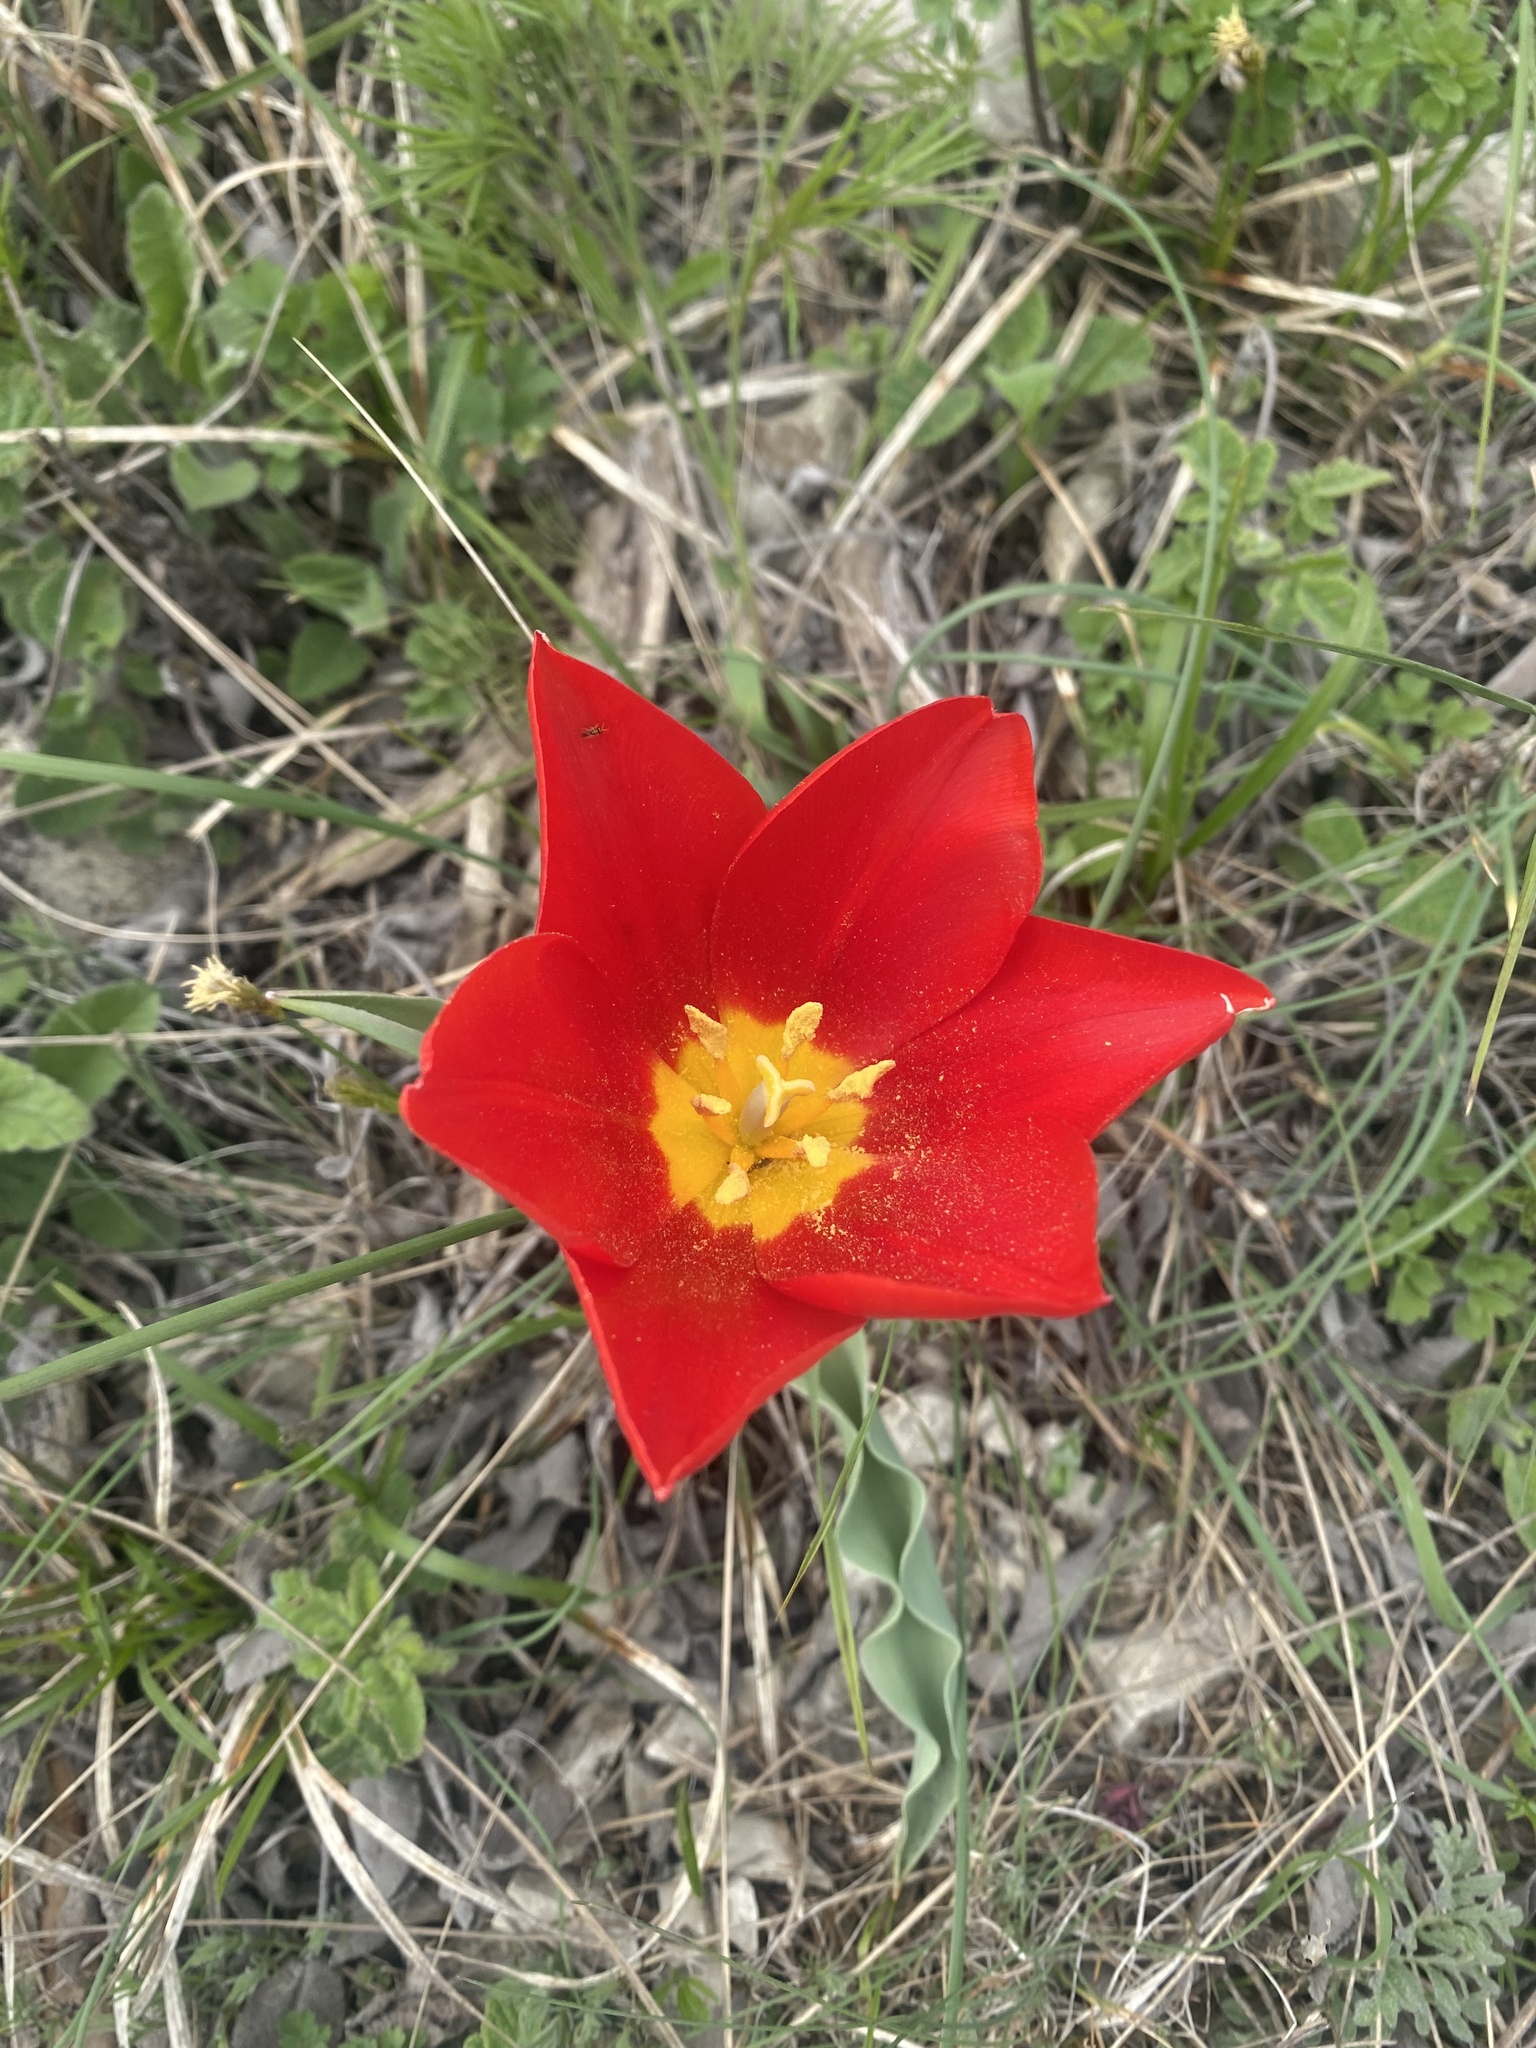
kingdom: Plantae
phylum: Tracheophyta
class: Liliopsida
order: Liliales
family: Liliaceae
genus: Tulipa
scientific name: Tulipa suaveolens
